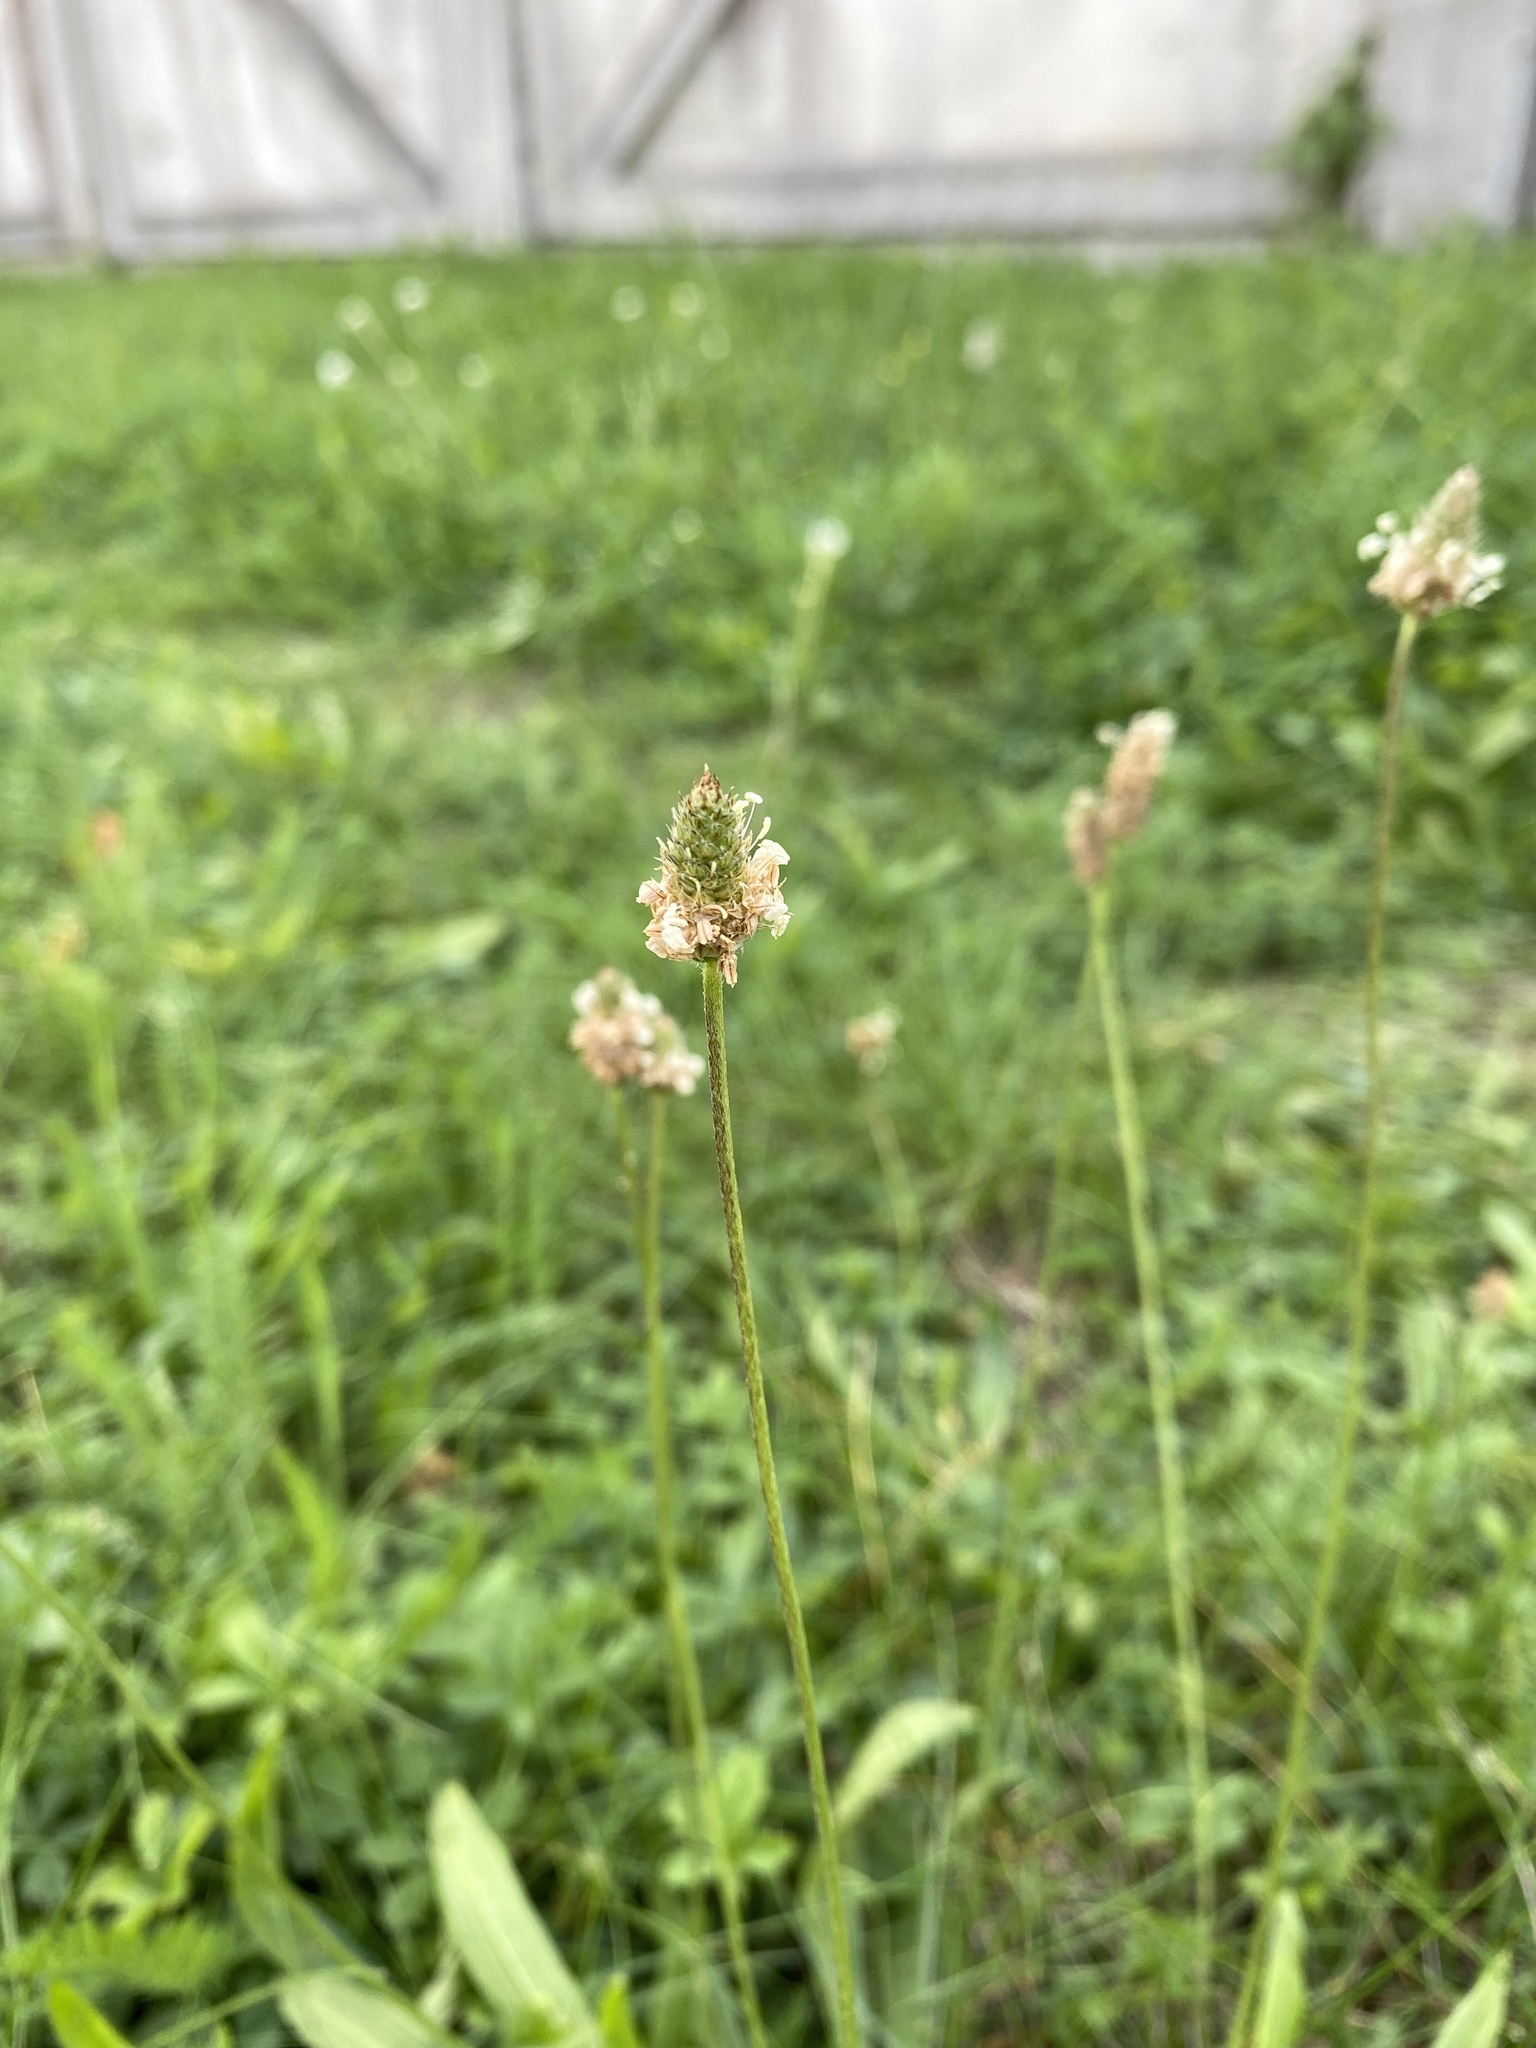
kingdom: Plantae
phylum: Tracheophyta
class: Magnoliopsida
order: Lamiales
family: Plantaginaceae
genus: Plantago
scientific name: Plantago lanceolata
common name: Ribwort plantain
